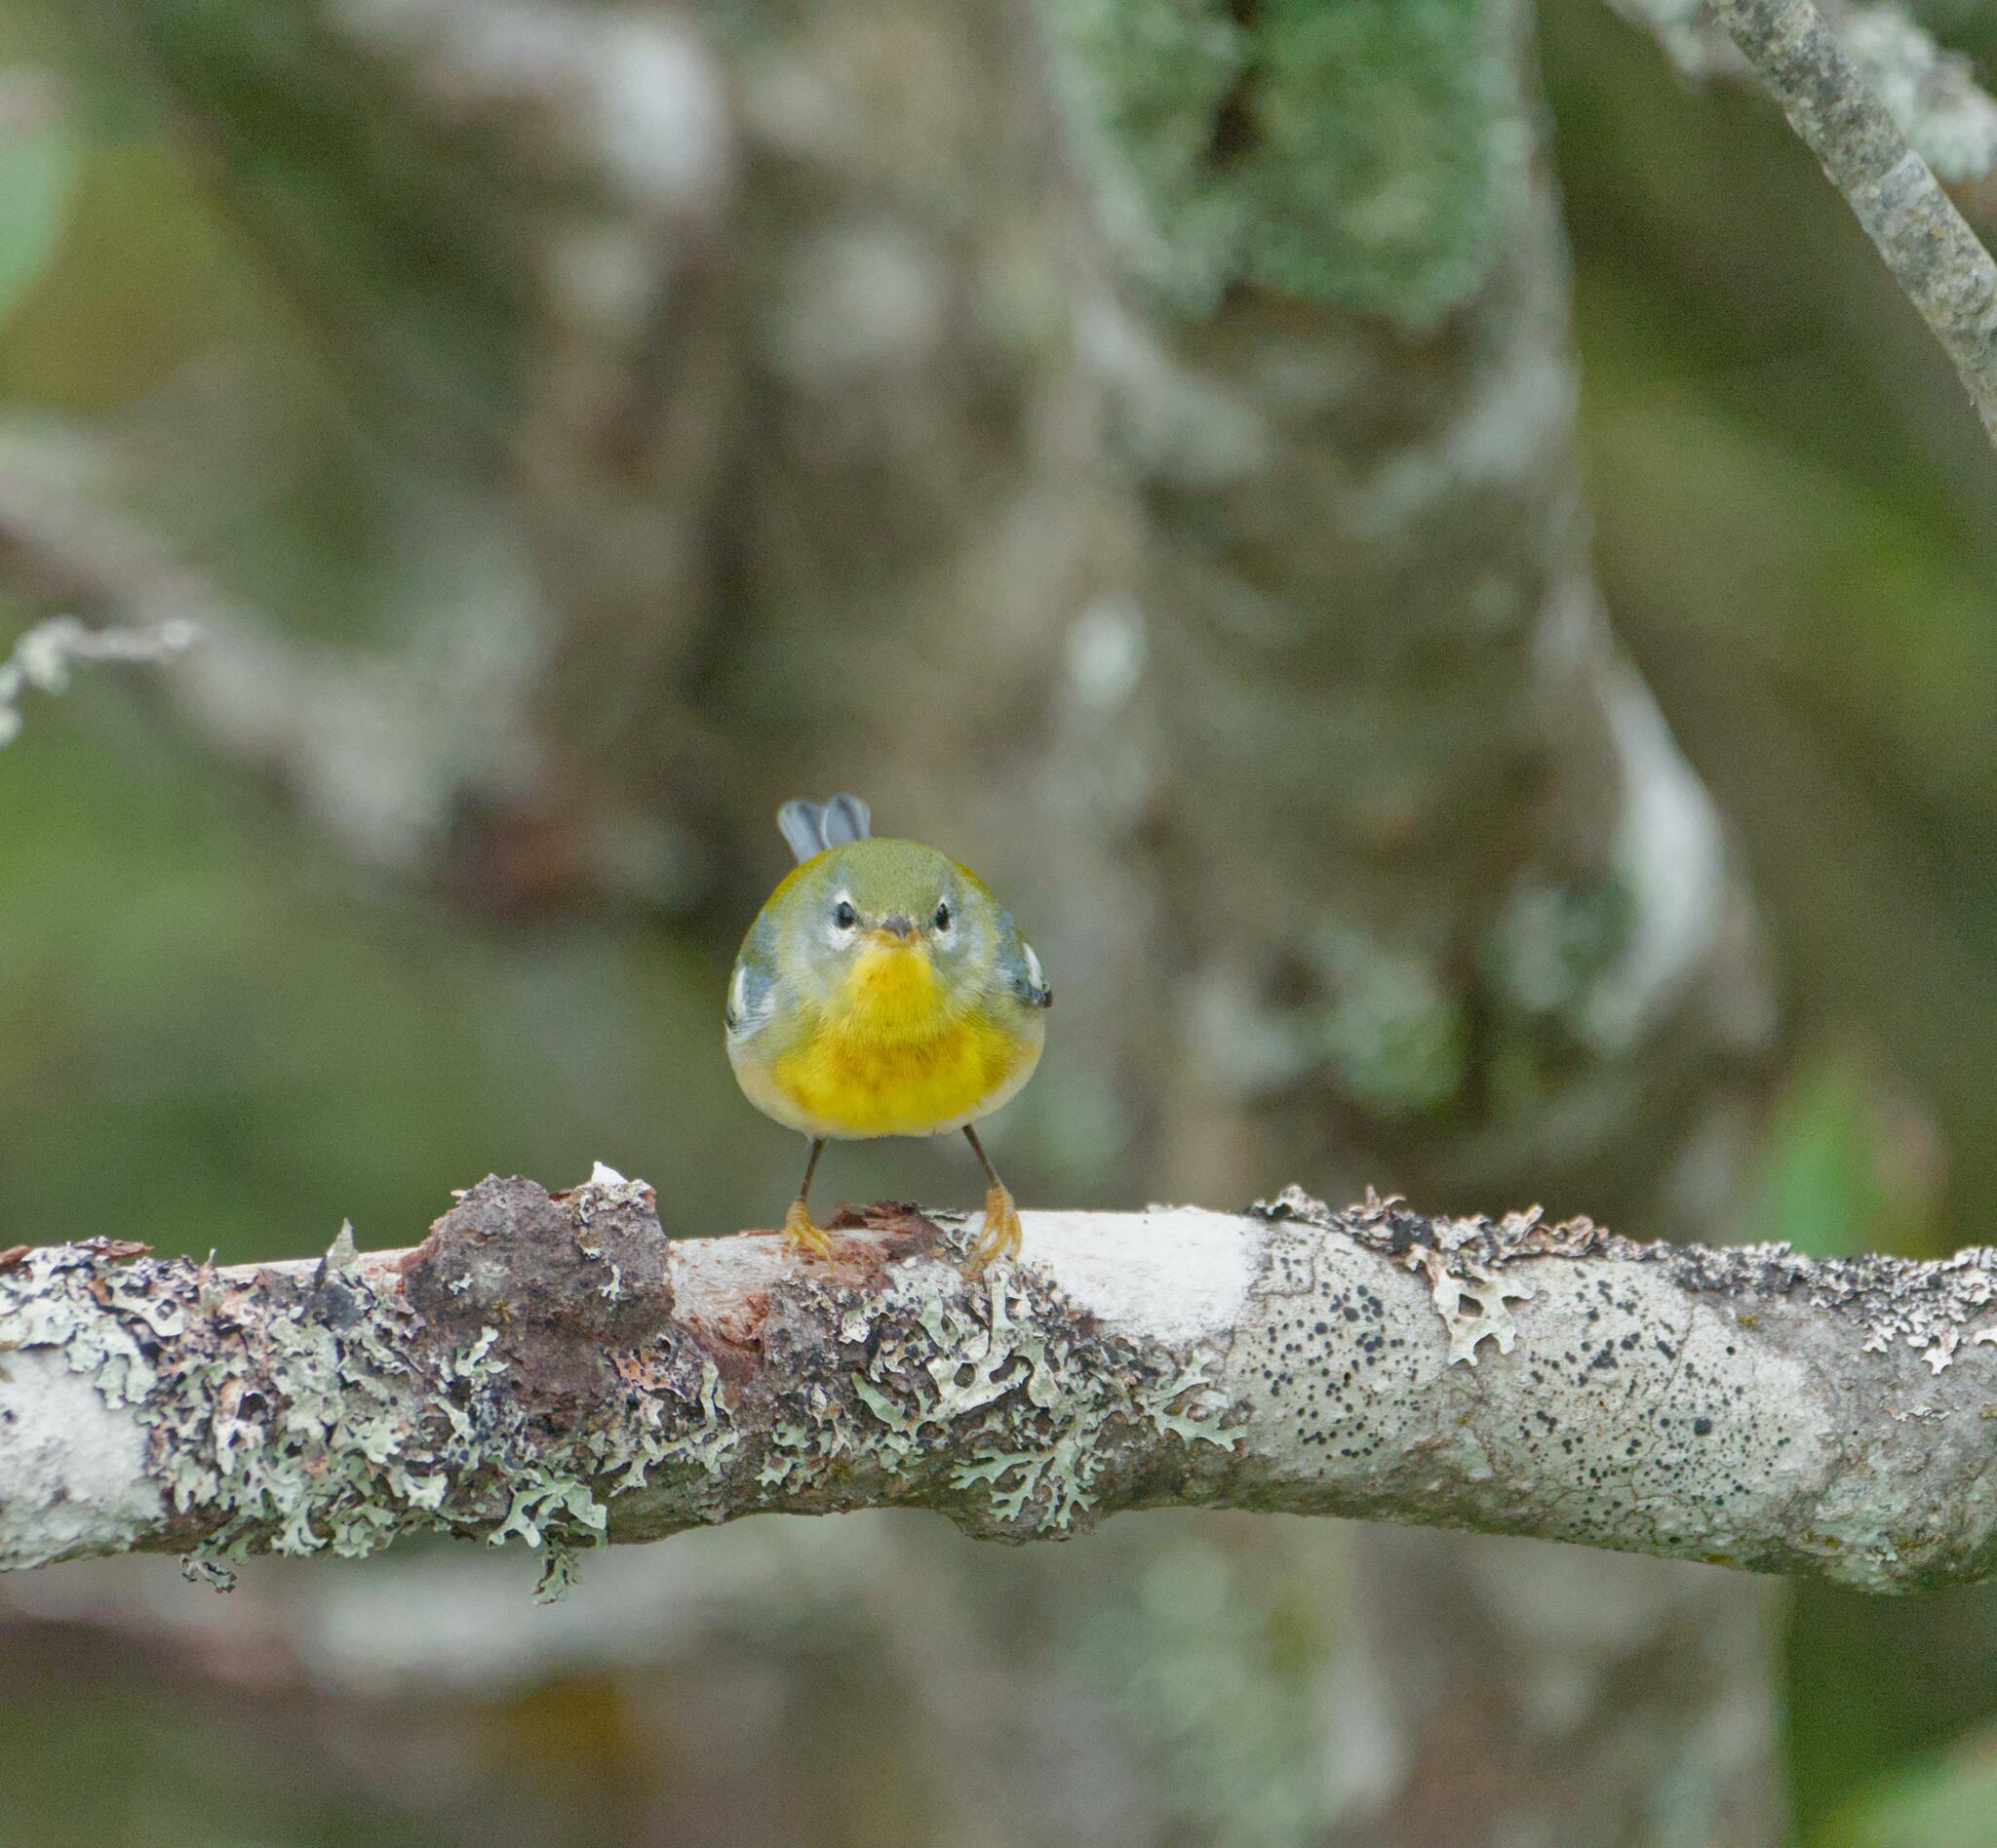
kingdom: Animalia
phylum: Chordata
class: Aves
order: Passeriformes
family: Parulidae
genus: Setophaga
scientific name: Setophaga americana
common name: Northern parula
